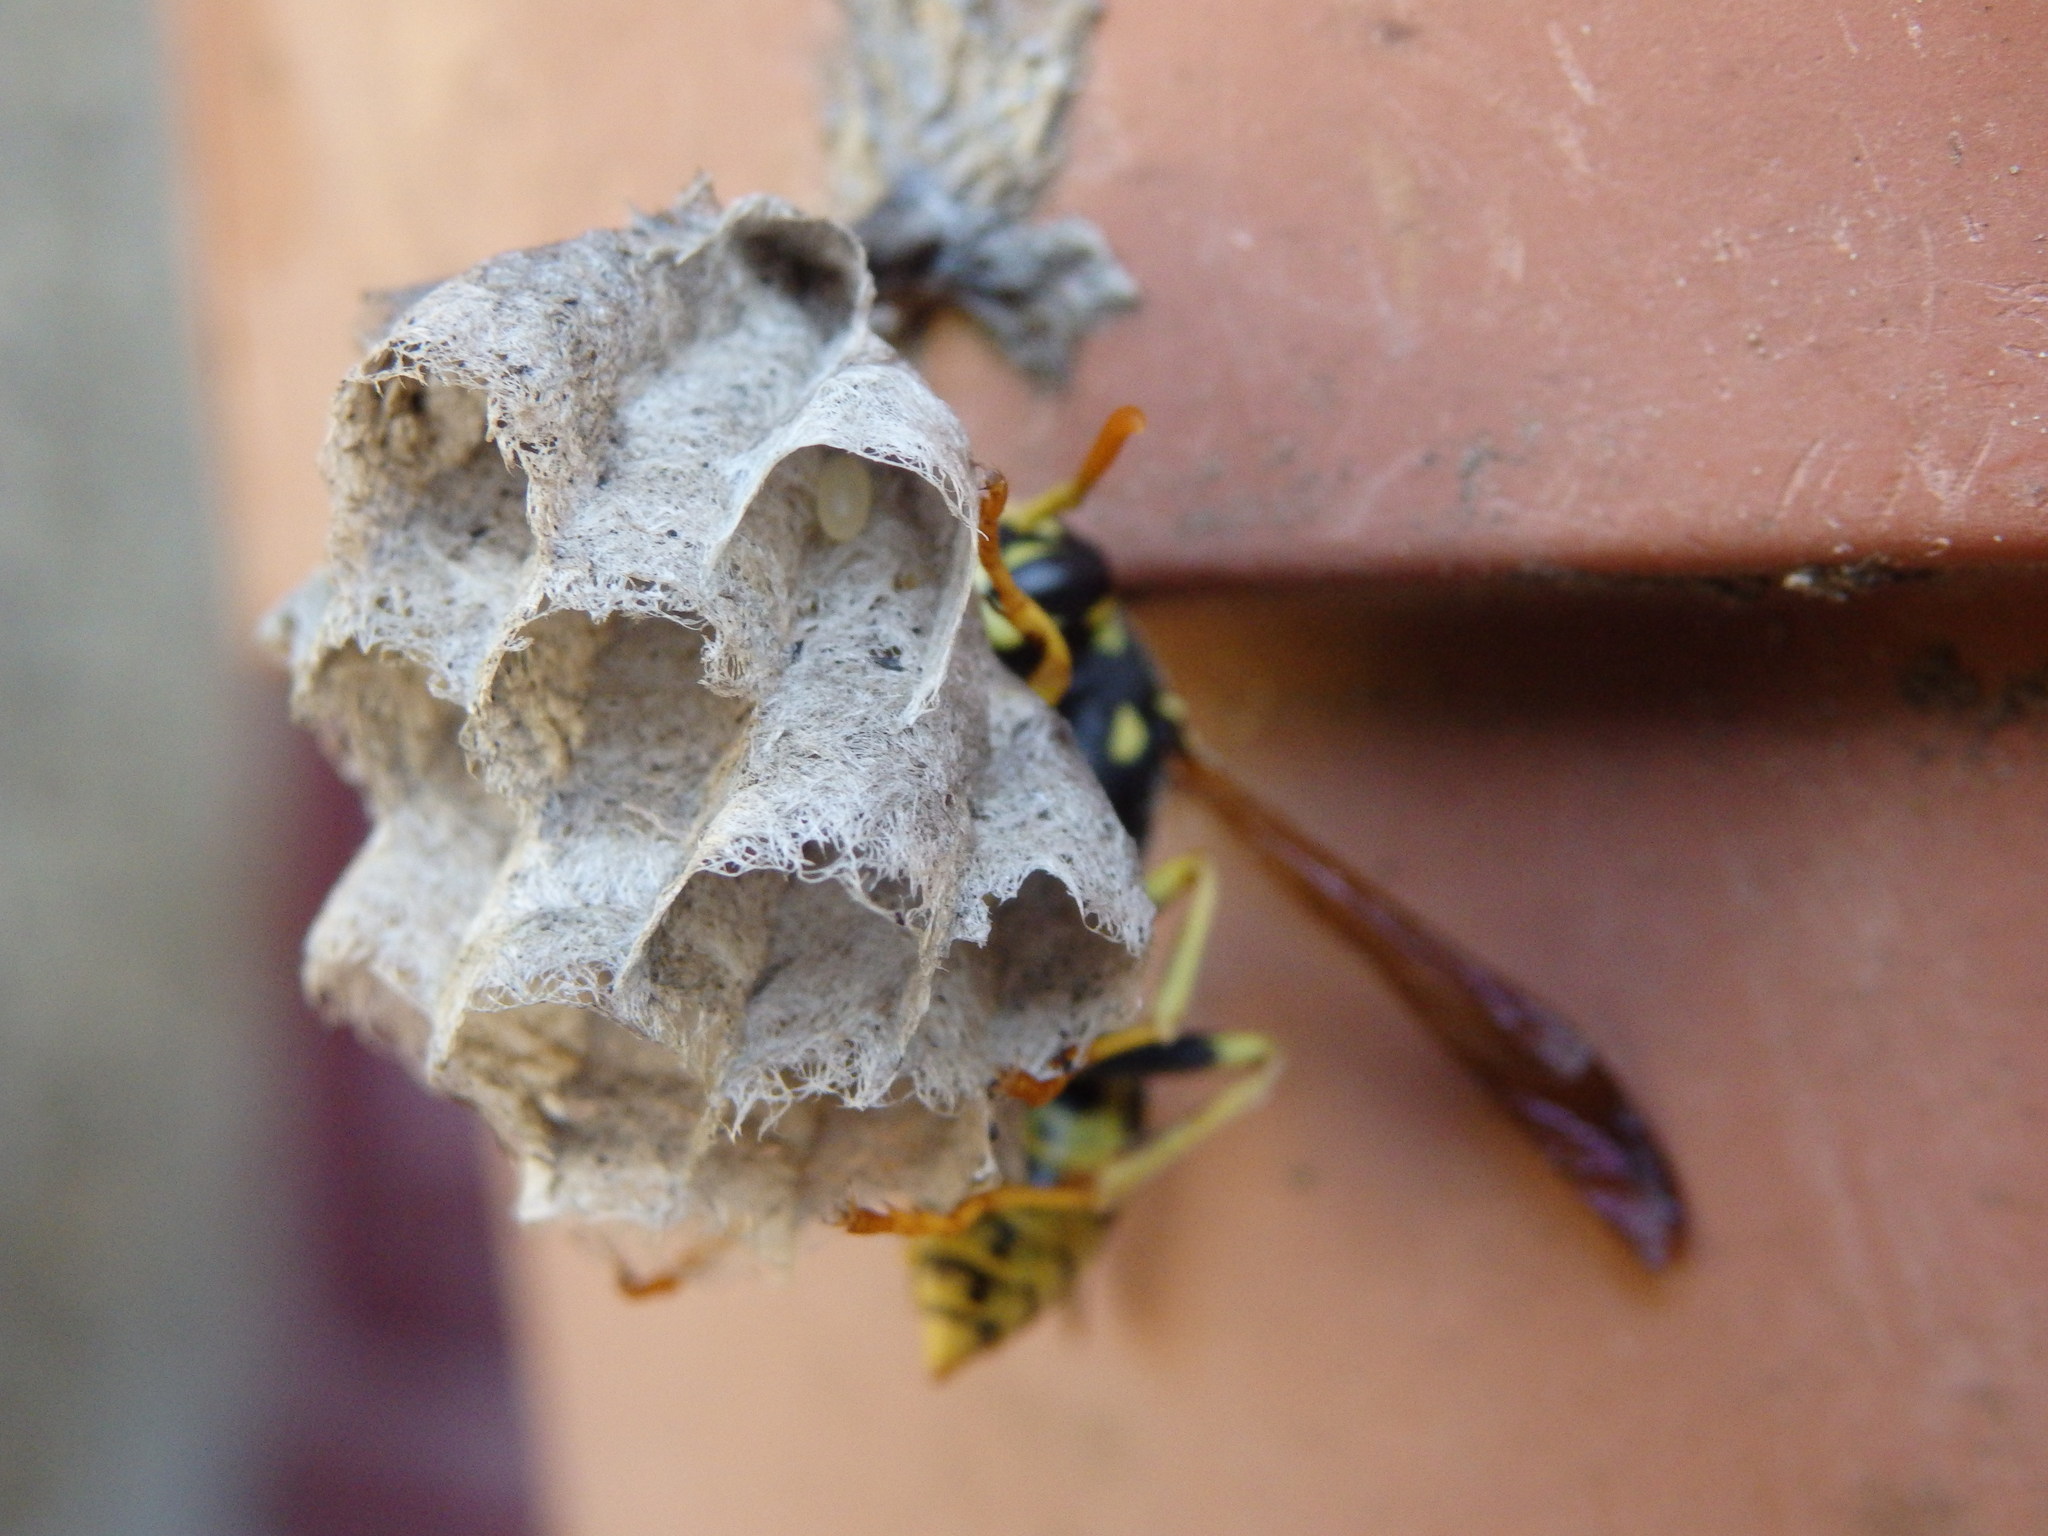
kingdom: Animalia
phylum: Arthropoda
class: Insecta
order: Hymenoptera
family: Eumenidae
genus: Polistes
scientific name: Polistes dominula
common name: Paper wasp
